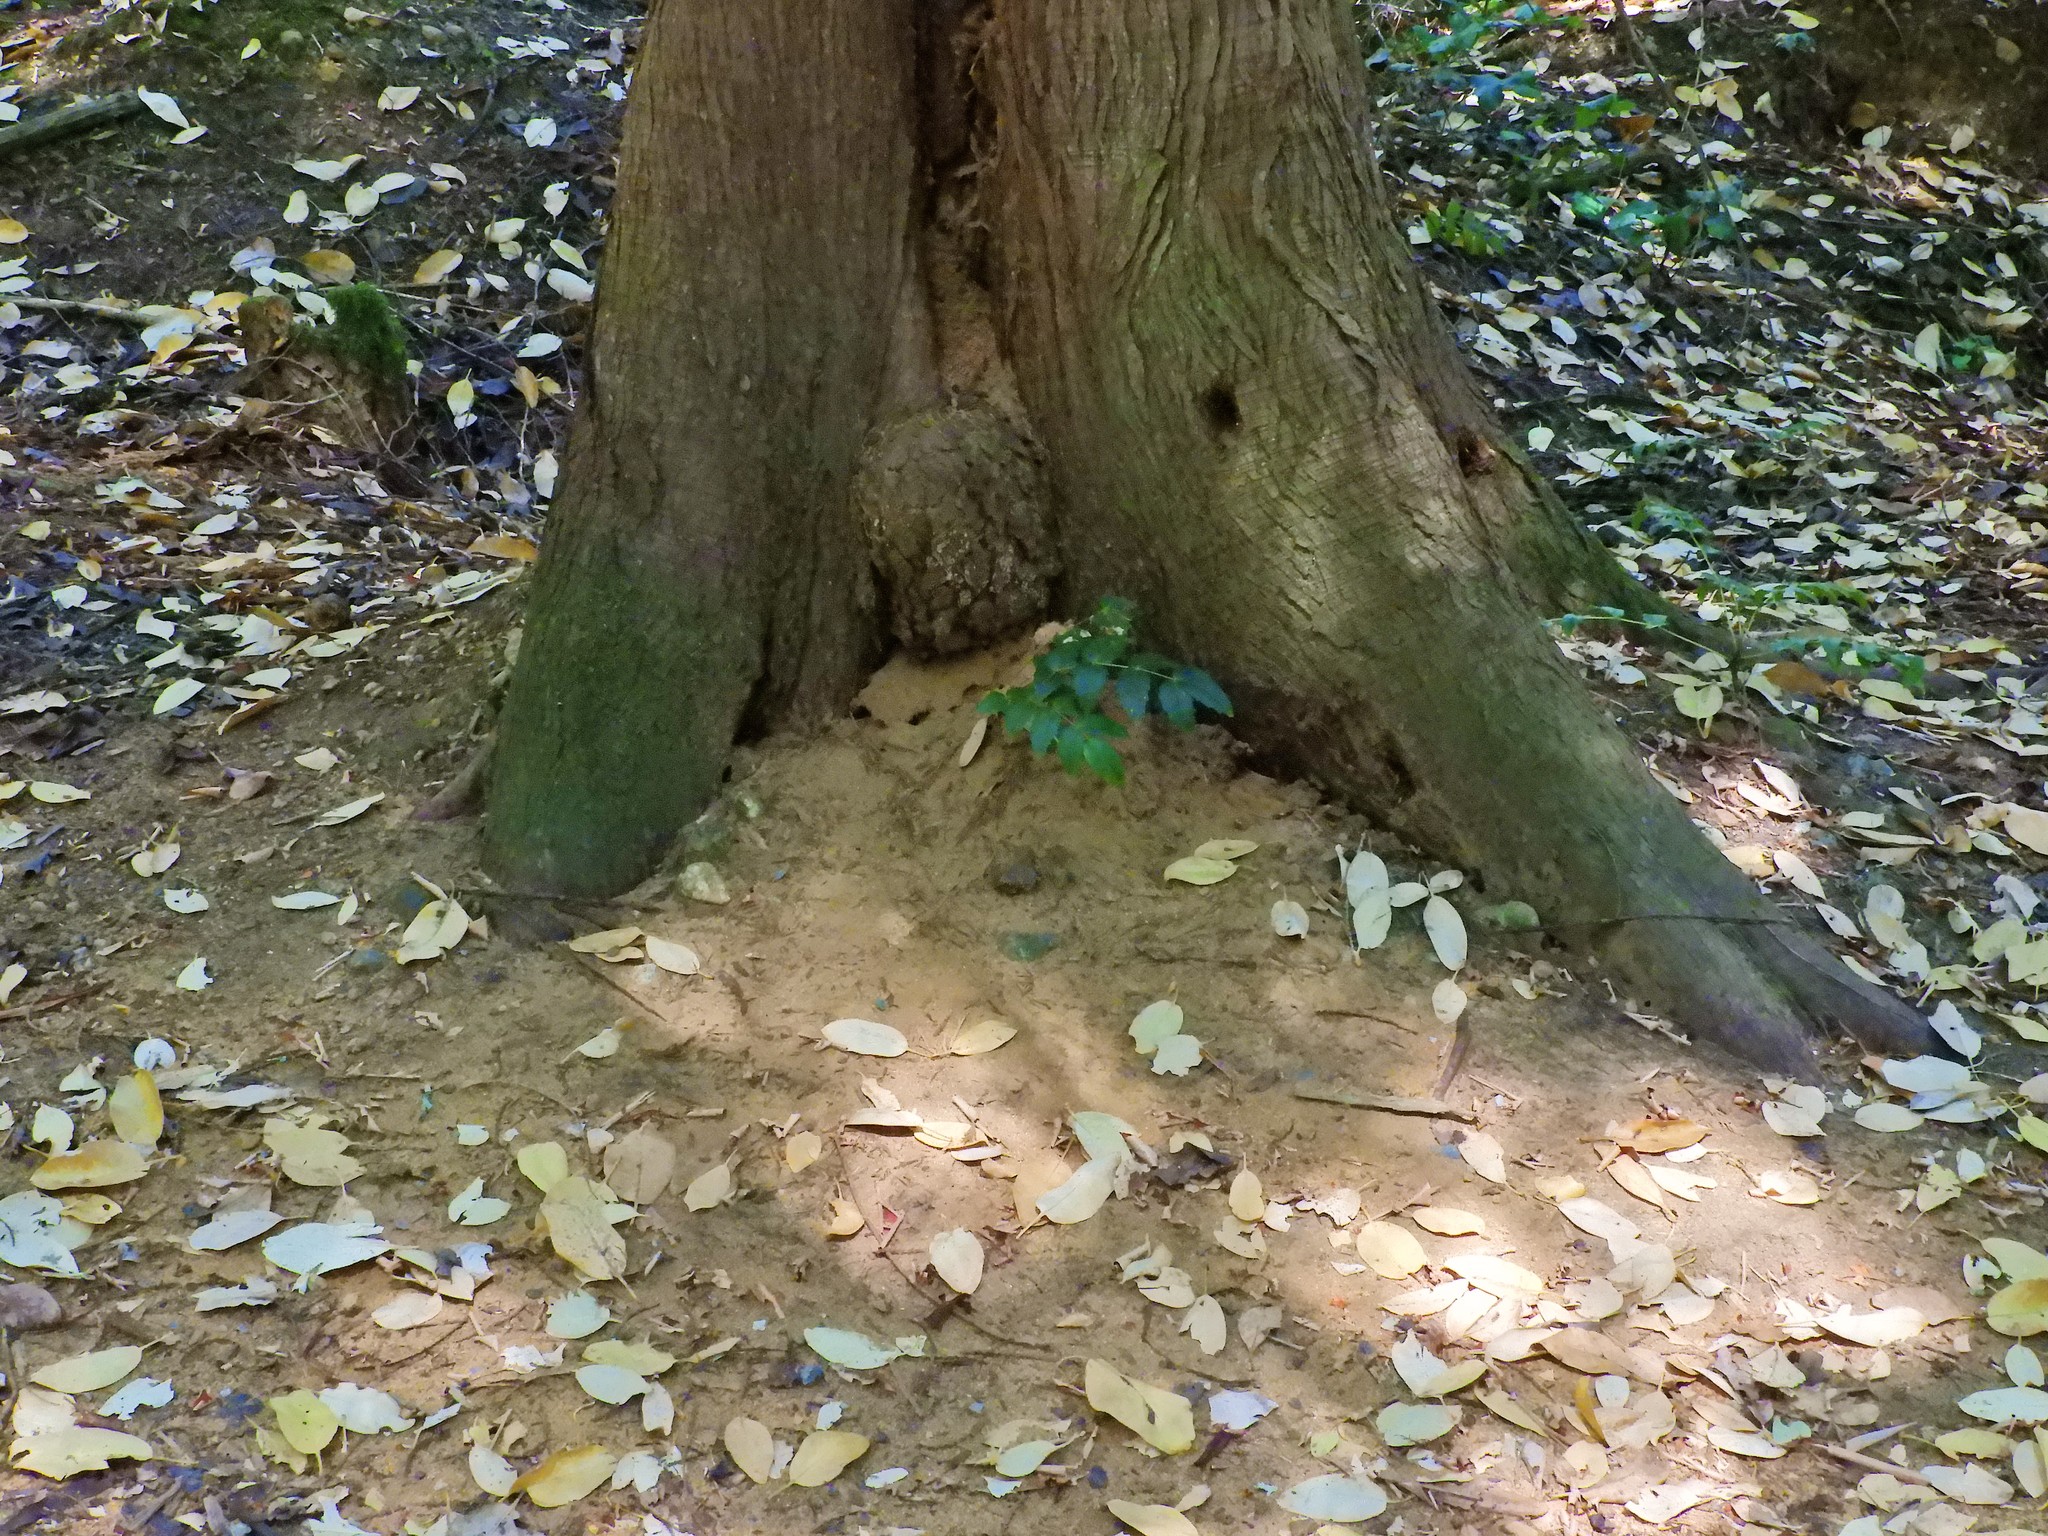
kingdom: Animalia
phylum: Arthropoda
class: Insecta
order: Hymenoptera
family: Formicidae
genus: Camponotus
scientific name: Camponotus modoc
